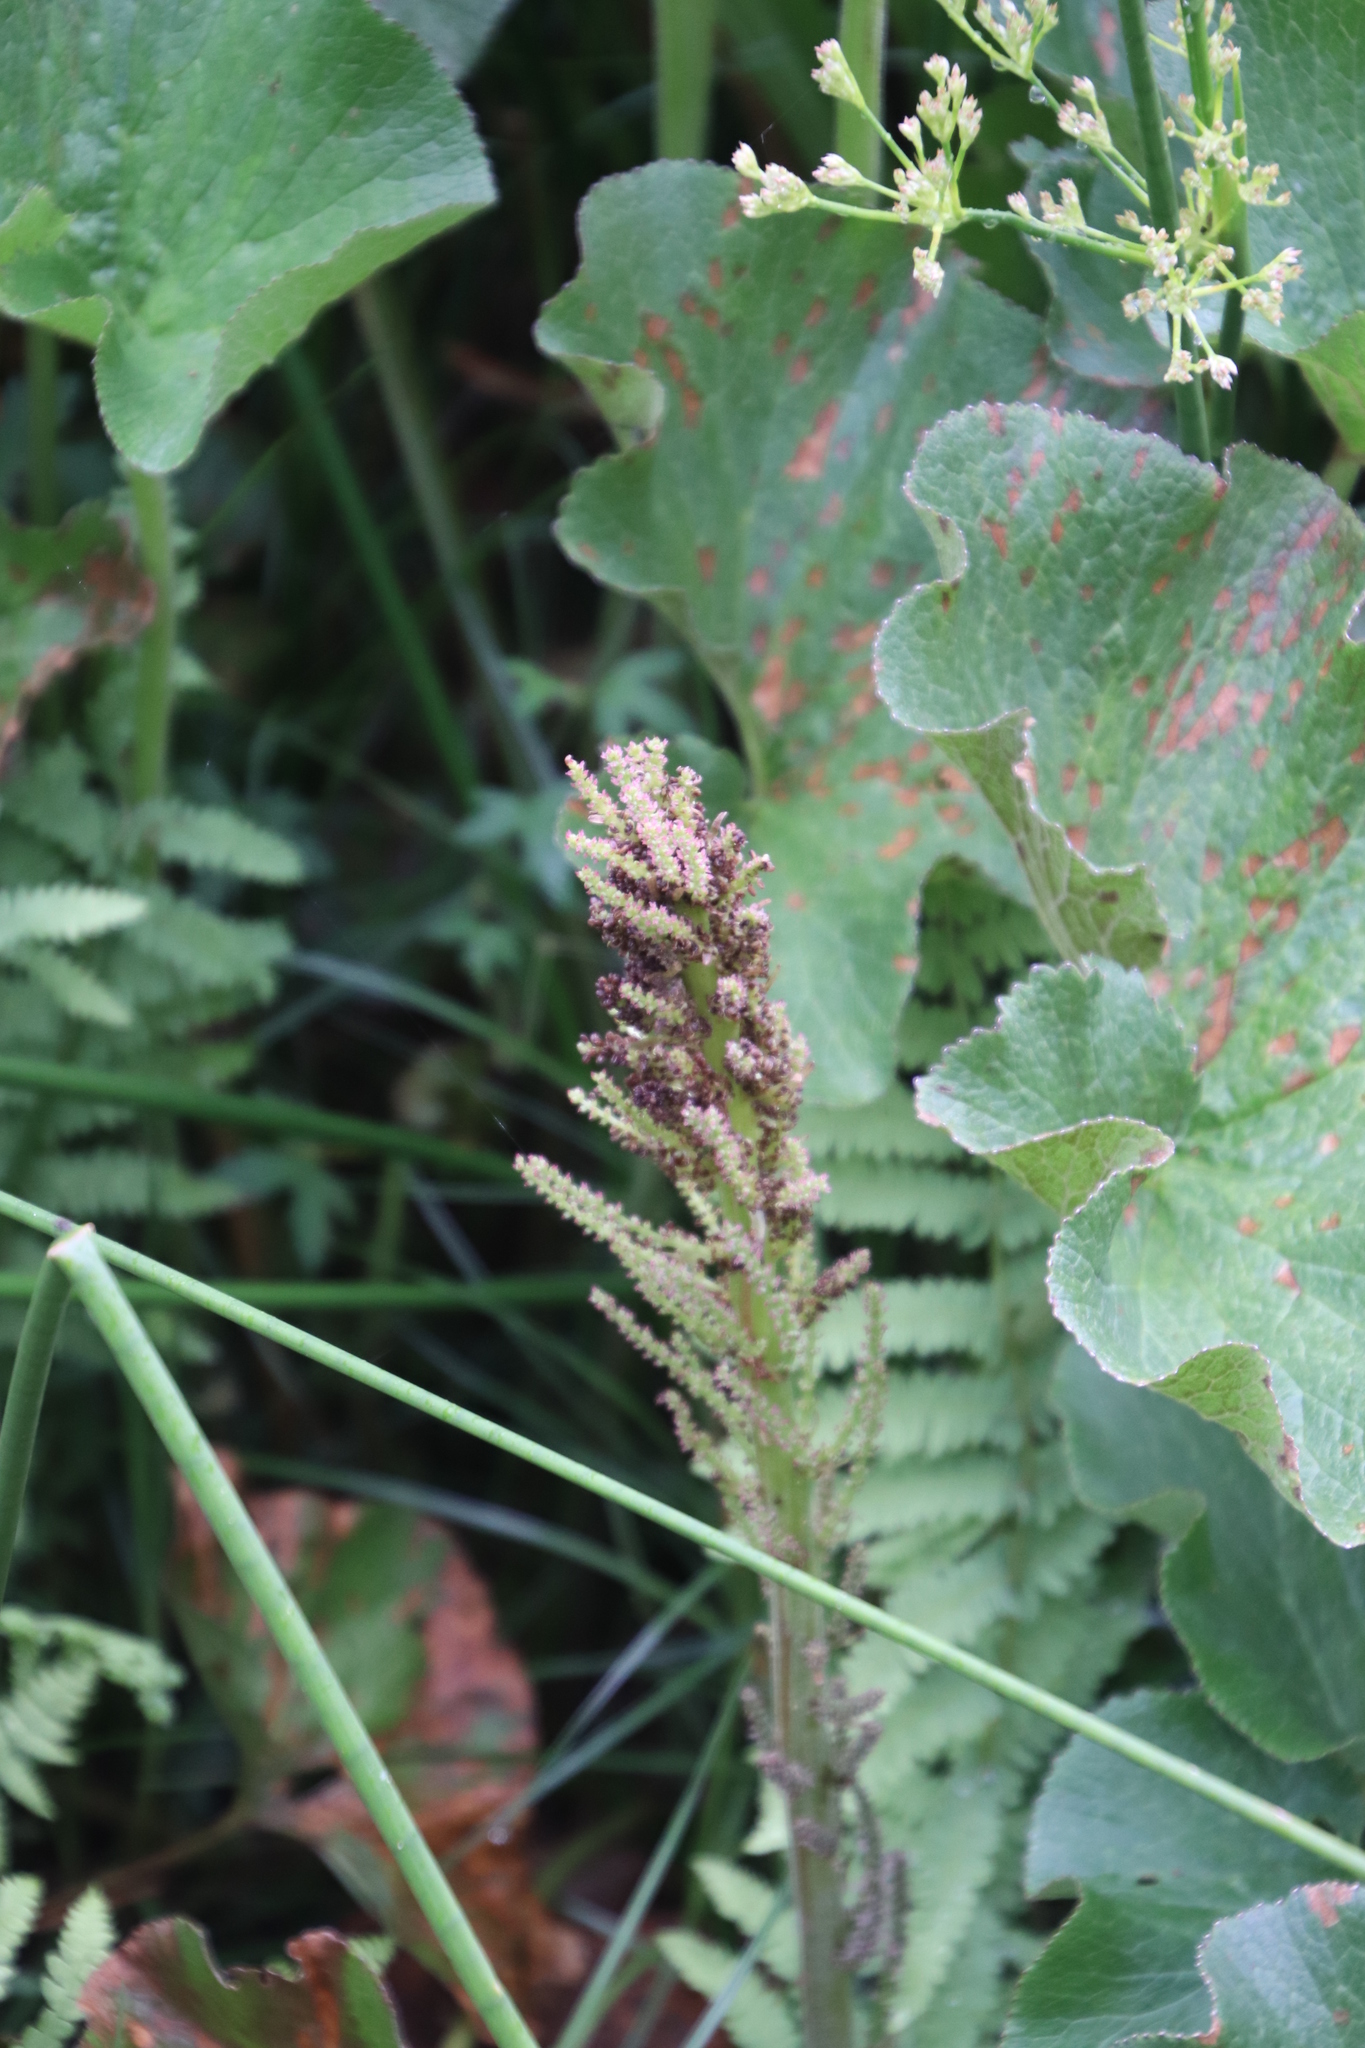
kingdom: Plantae
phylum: Tracheophyta
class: Magnoliopsida
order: Gunnerales
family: Gunneraceae
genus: Gunnera
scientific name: Gunnera perpensa
